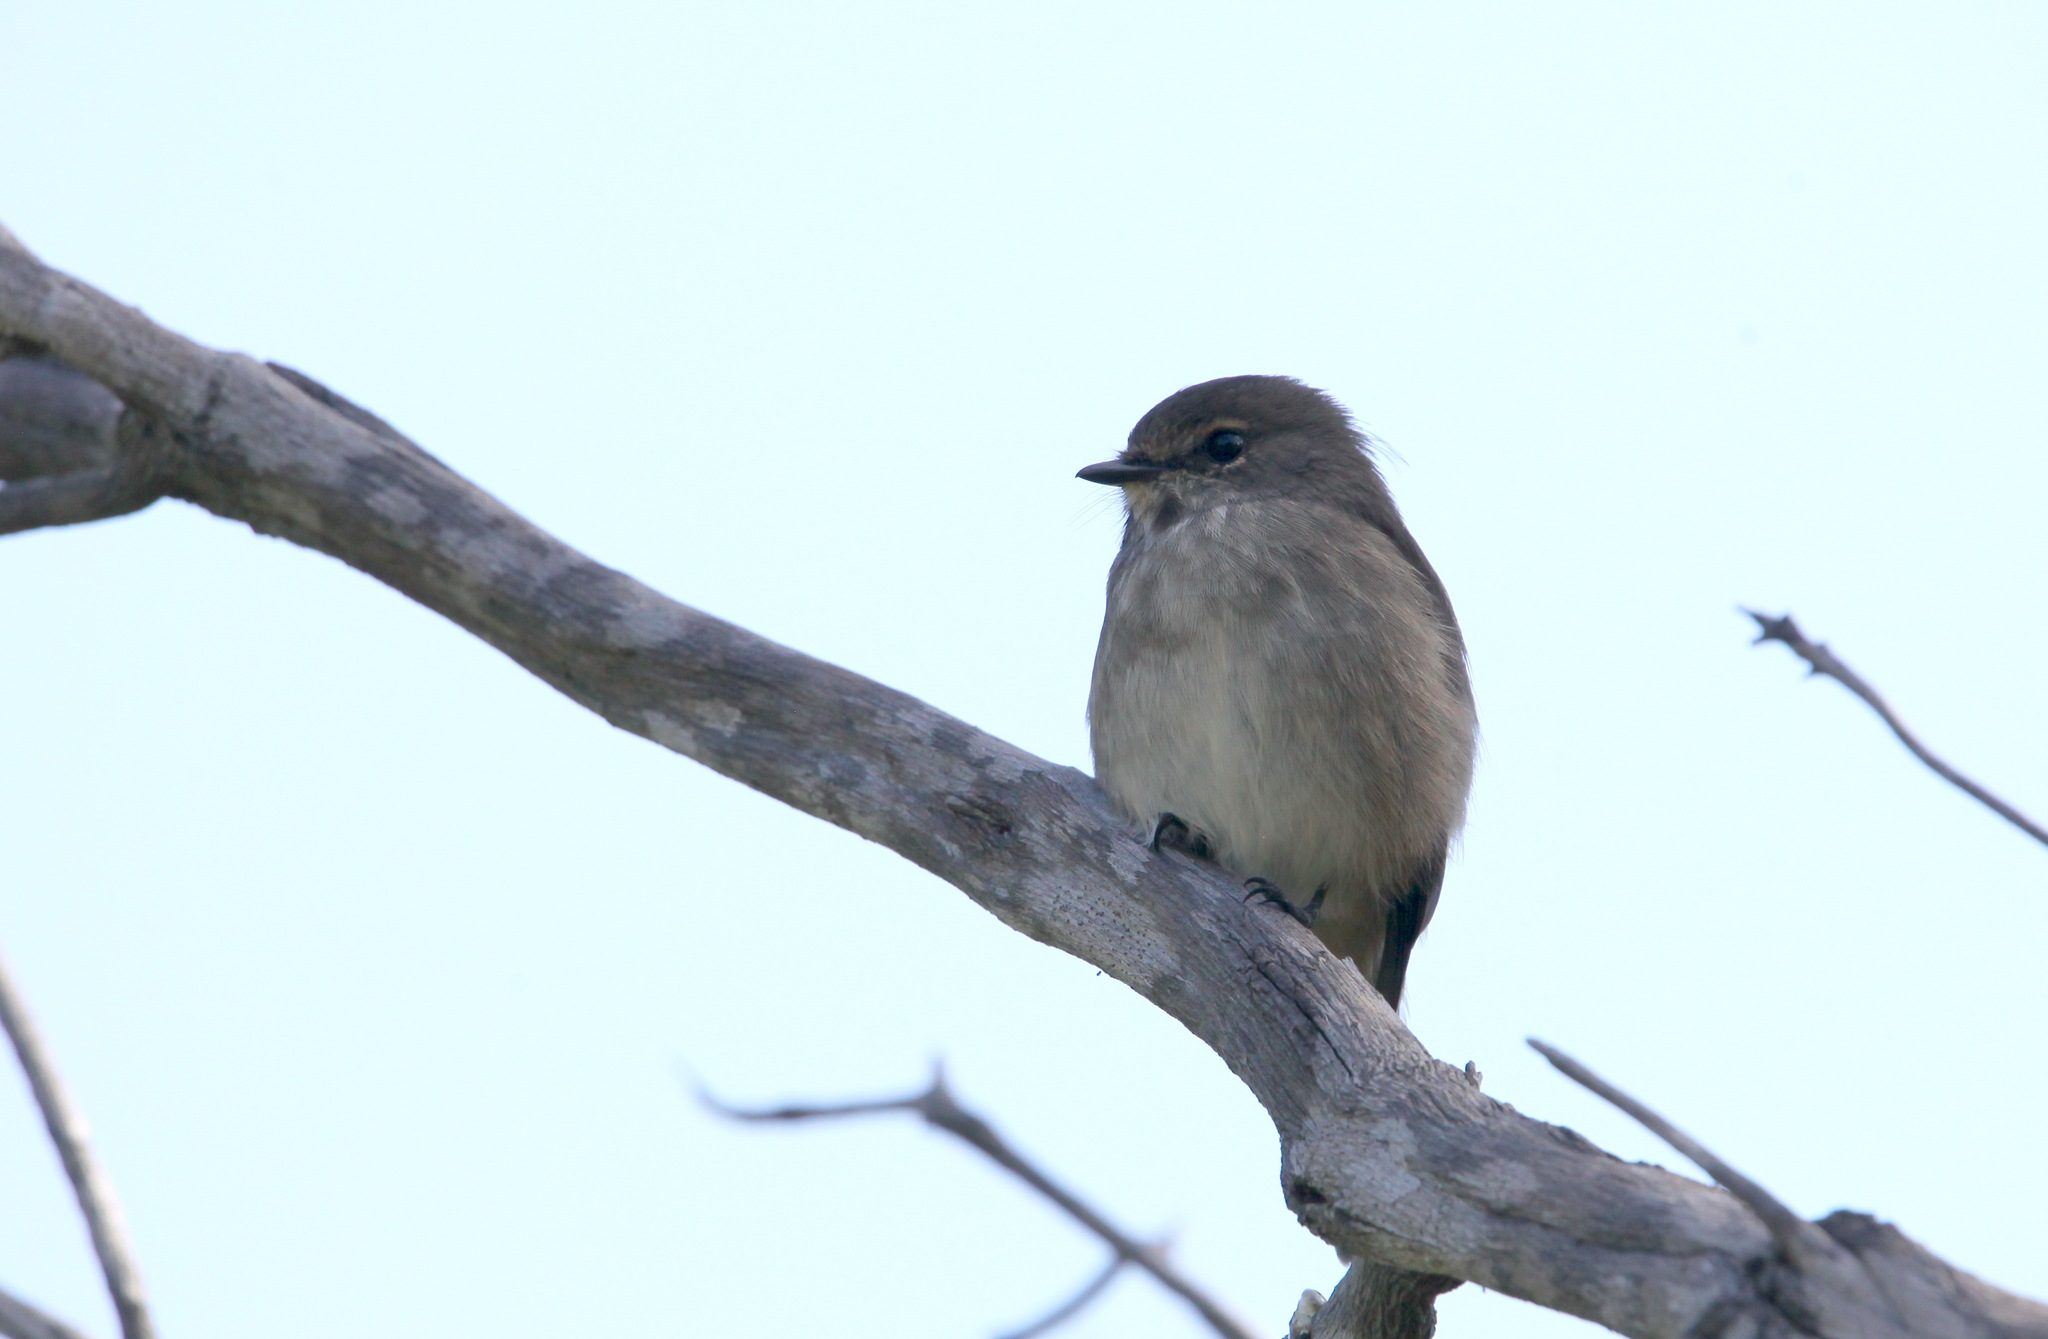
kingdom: Animalia
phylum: Chordata
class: Aves
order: Passeriformes
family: Muscicapidae
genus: Muscicapa
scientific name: Muscicapa adusta
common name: African dusky flycatcher
